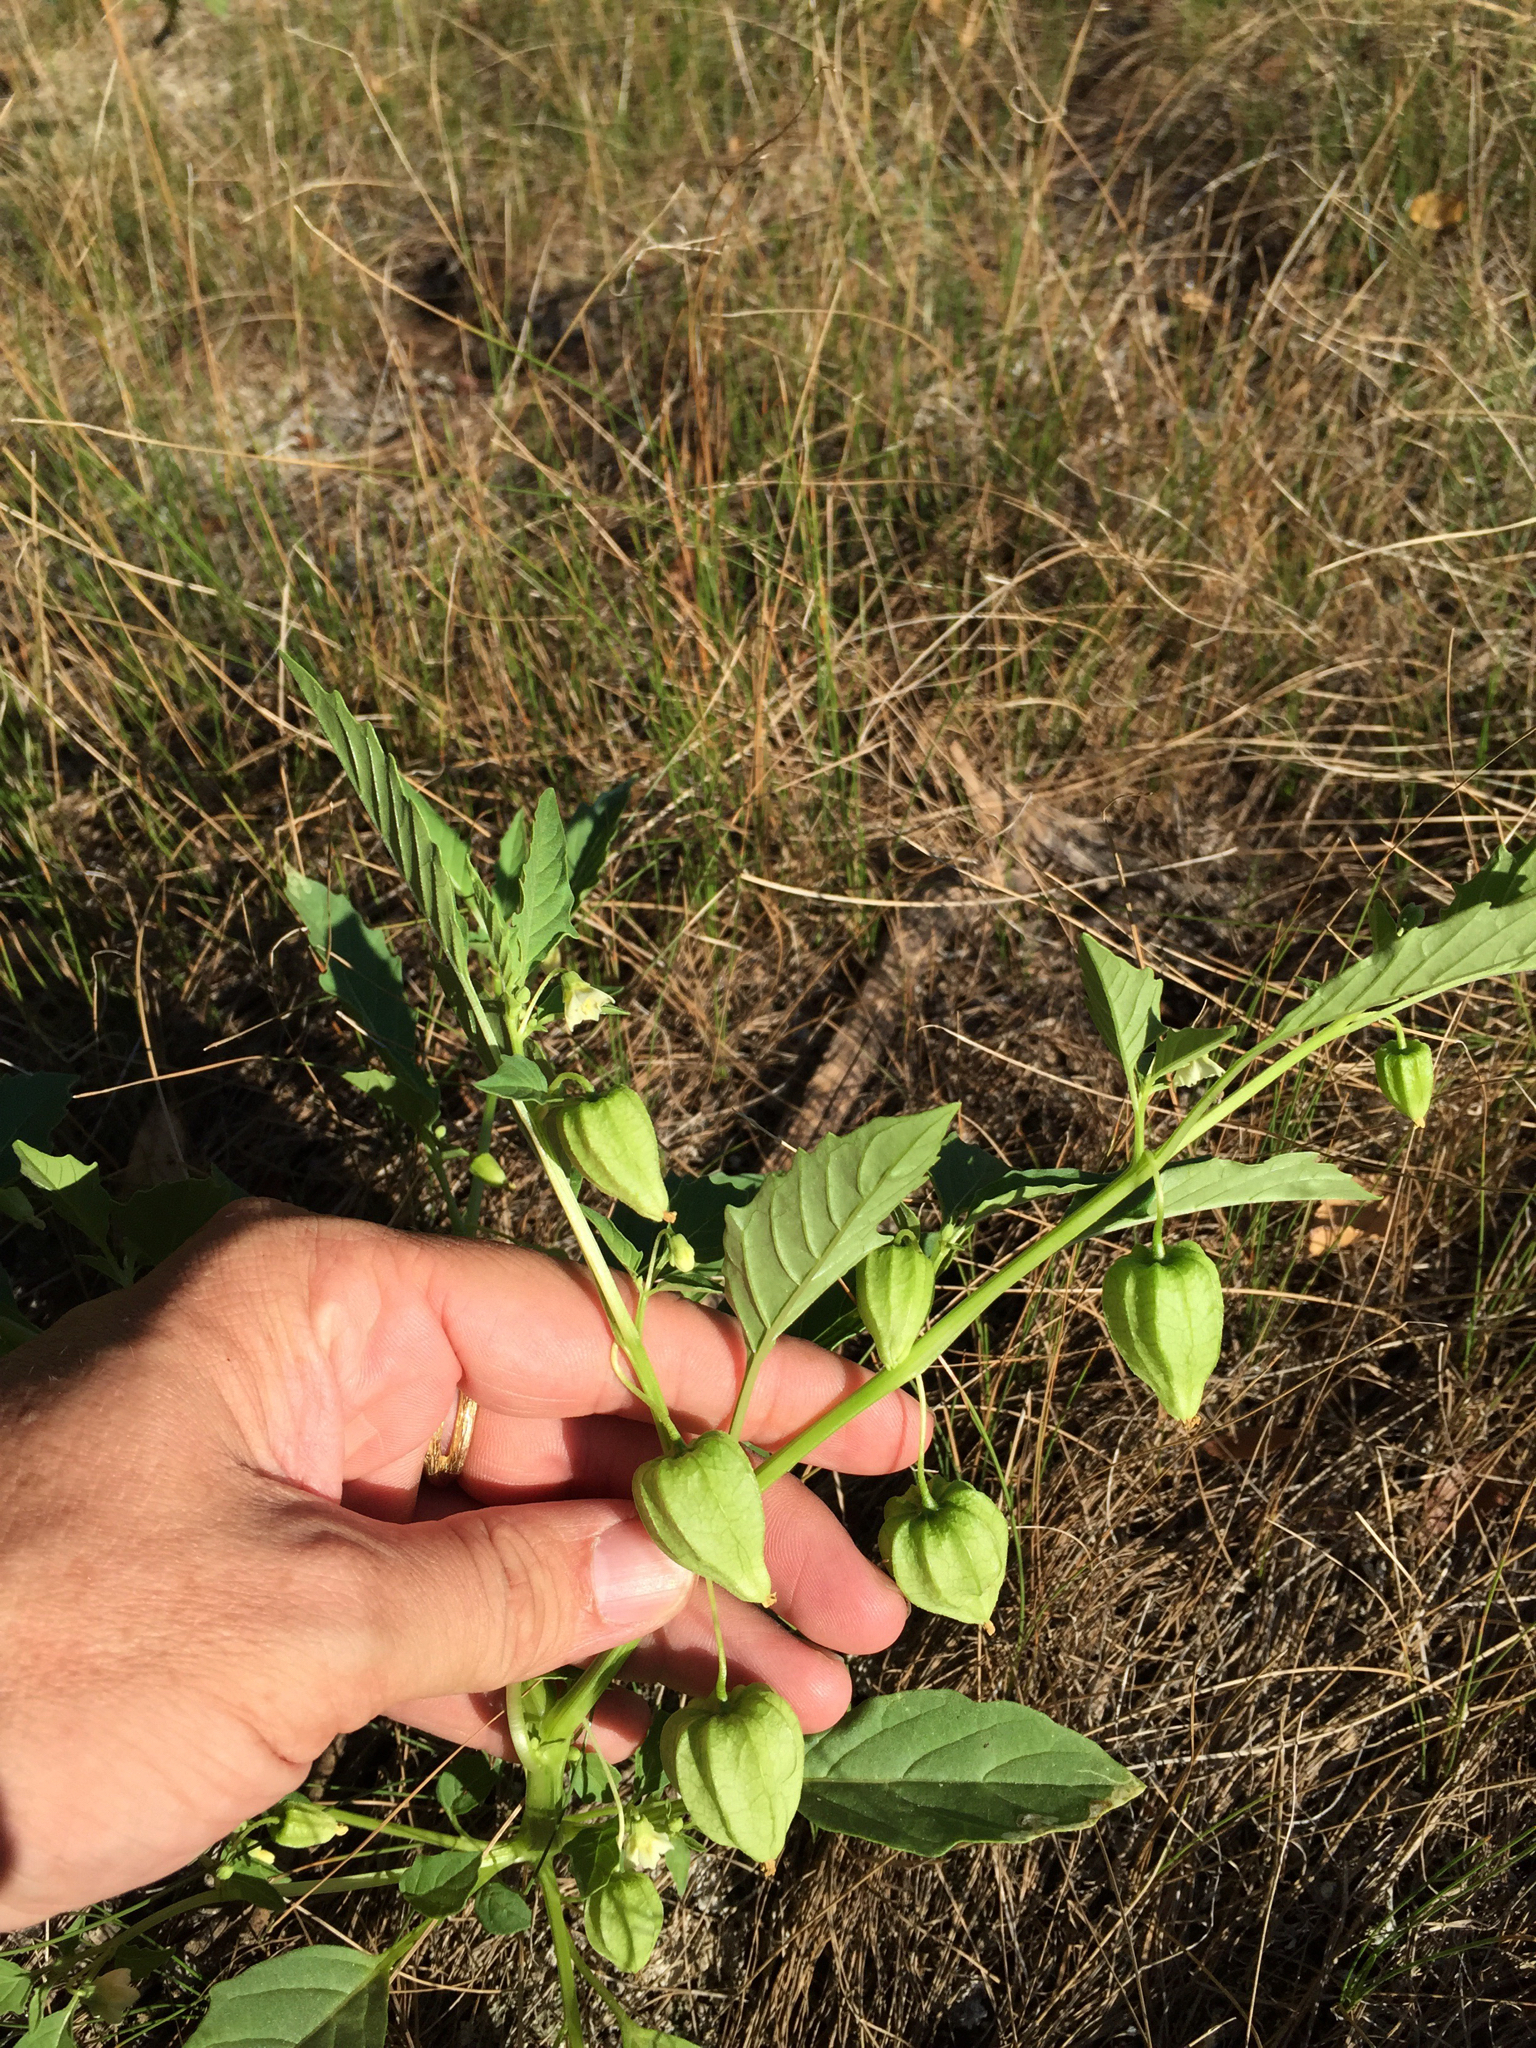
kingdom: Plantae
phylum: Tracheophyta
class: Magnoliopsida
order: Solanales
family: Solanaceae
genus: Physalis
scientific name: Physalis angulata
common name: Angular winter-cherry
